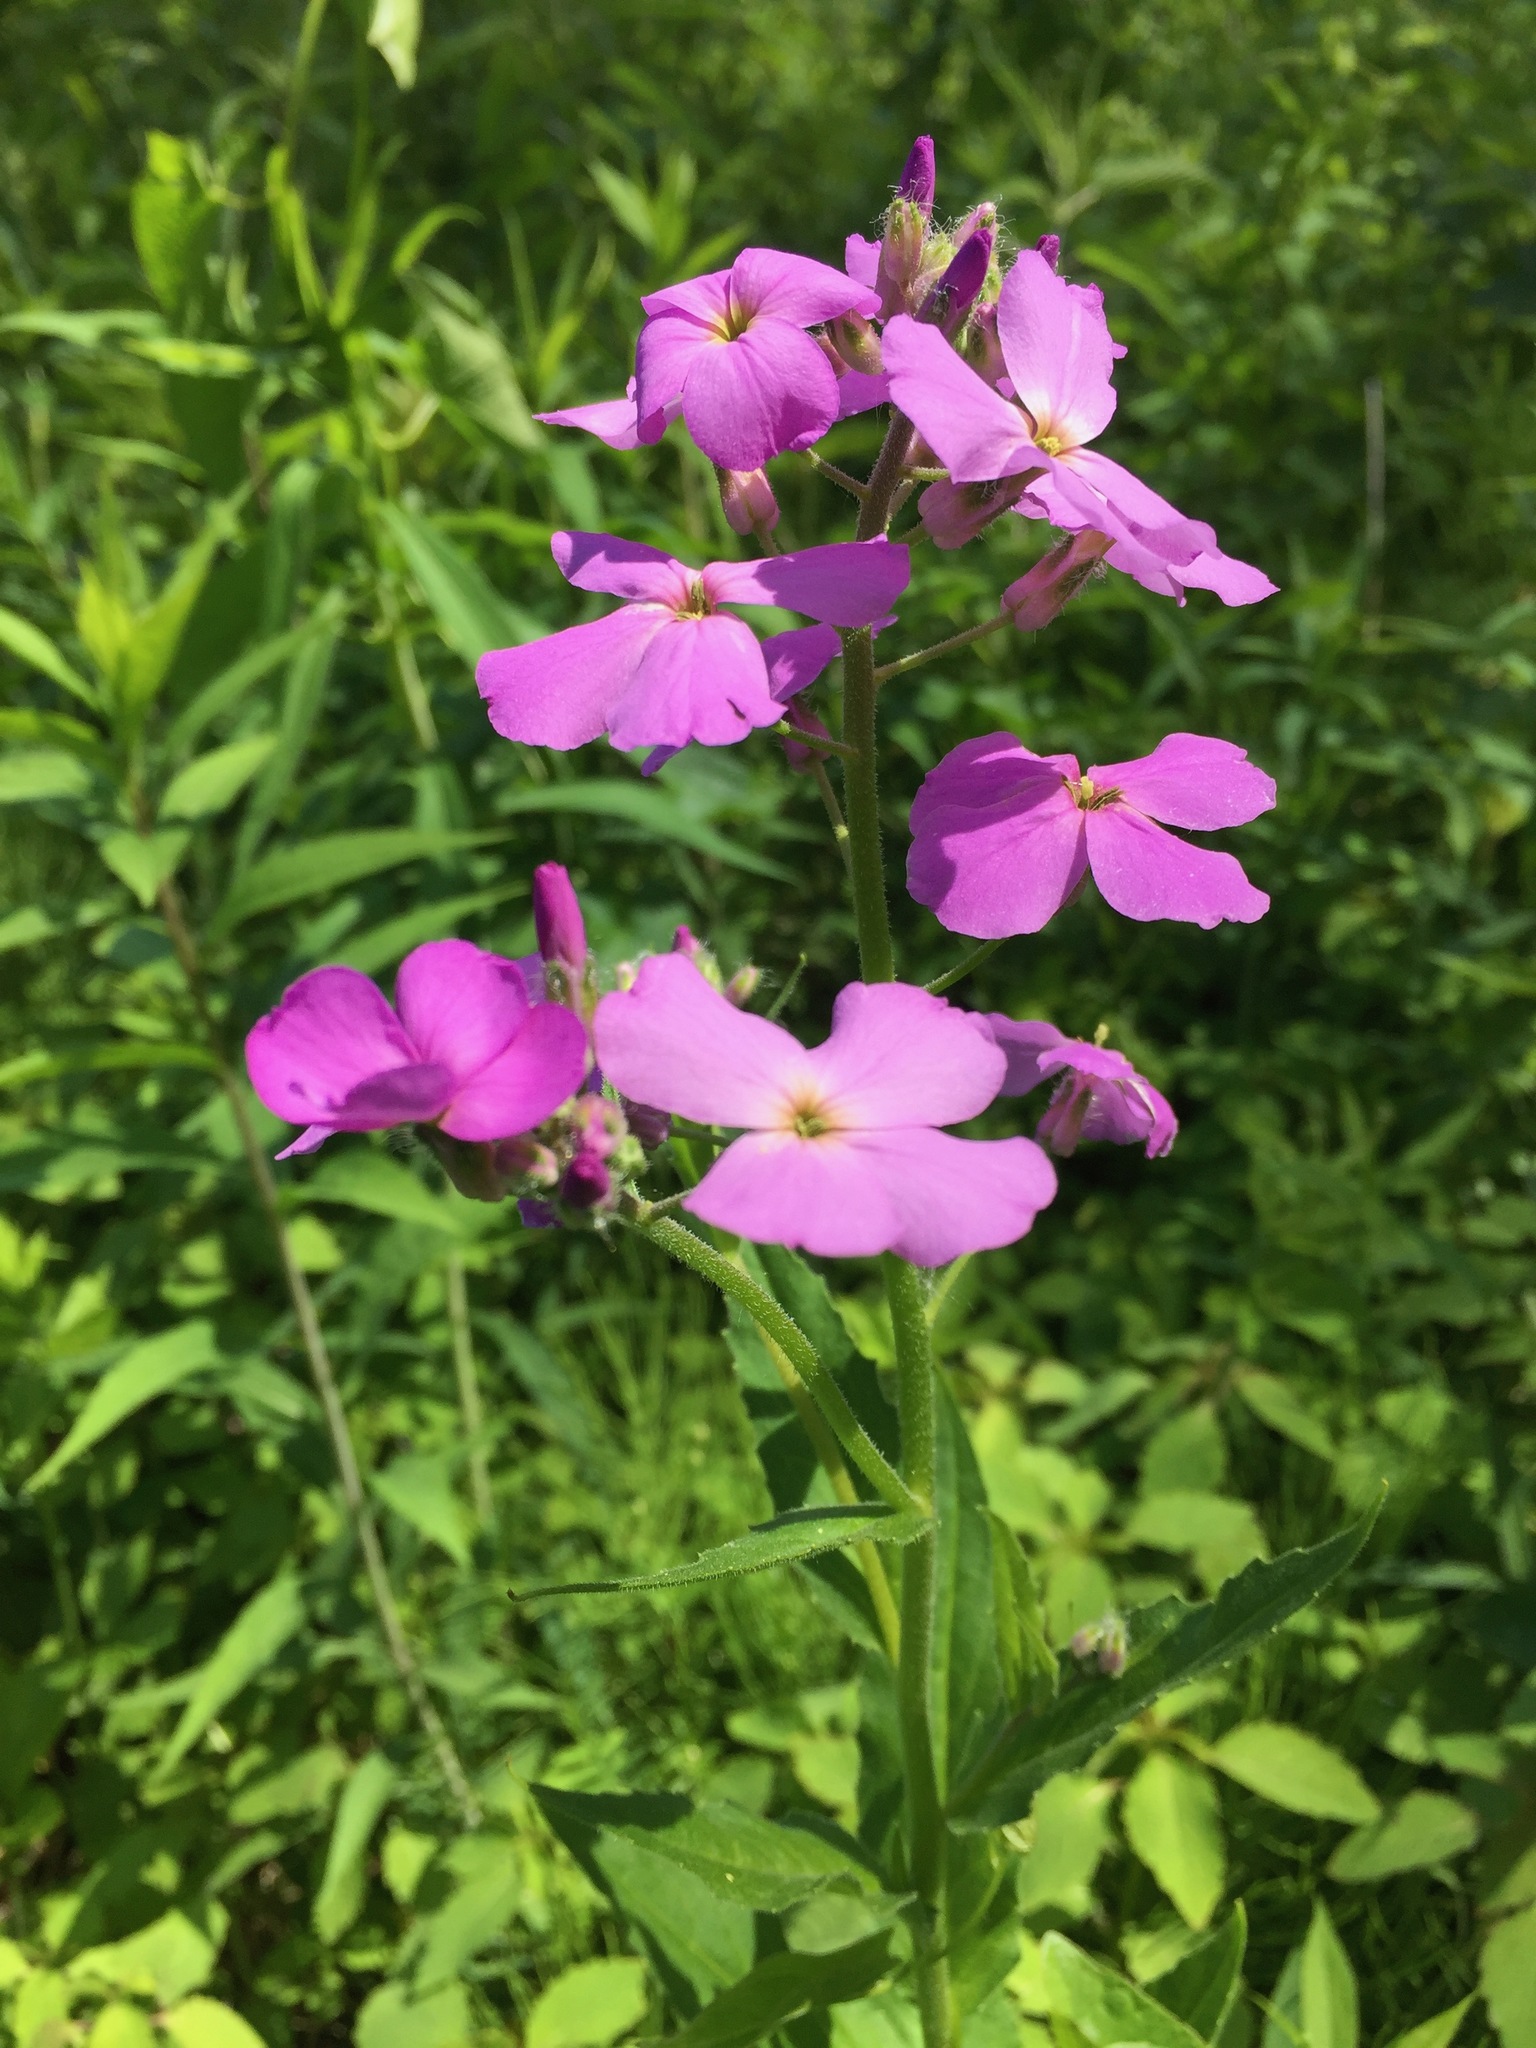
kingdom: Plantae
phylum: Tracheophyta
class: Magnoliopsida
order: Brassicales
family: Brassicaceae
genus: Hesperis
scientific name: Hesperis matronalis
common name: Dame's-violet
